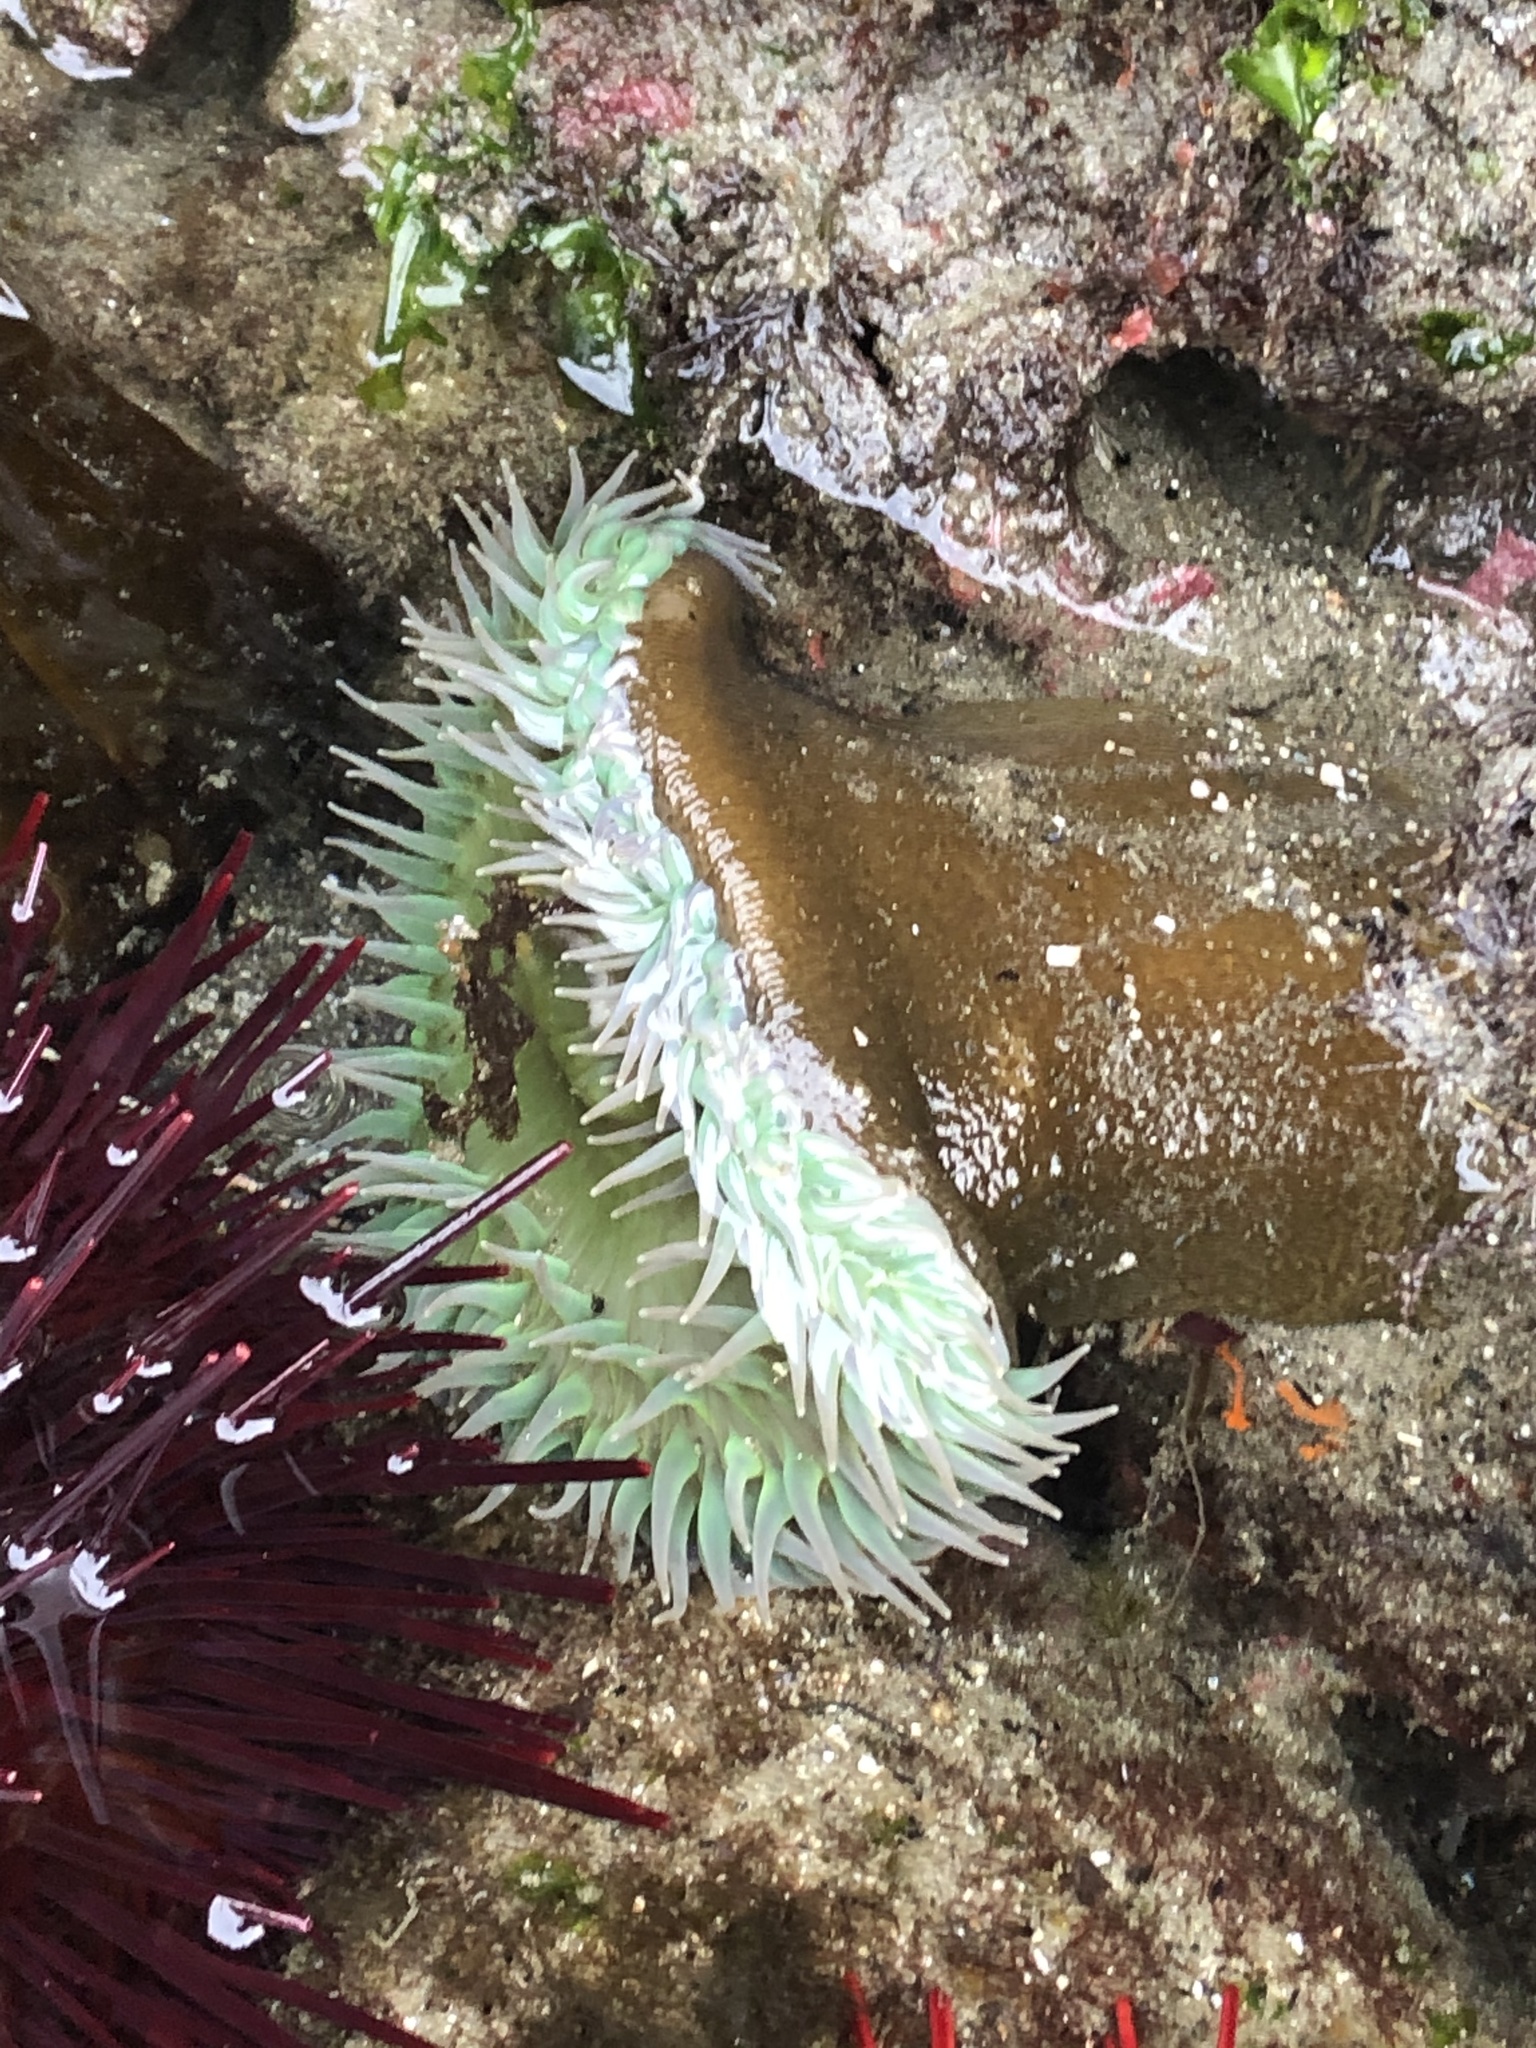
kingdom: Animalia
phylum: Cnidaria
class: Anthozoa
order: Actiniaria
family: Actiniidae
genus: Anthopleura
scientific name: Anthopleura xanthogrammica
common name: Giant green anemone
